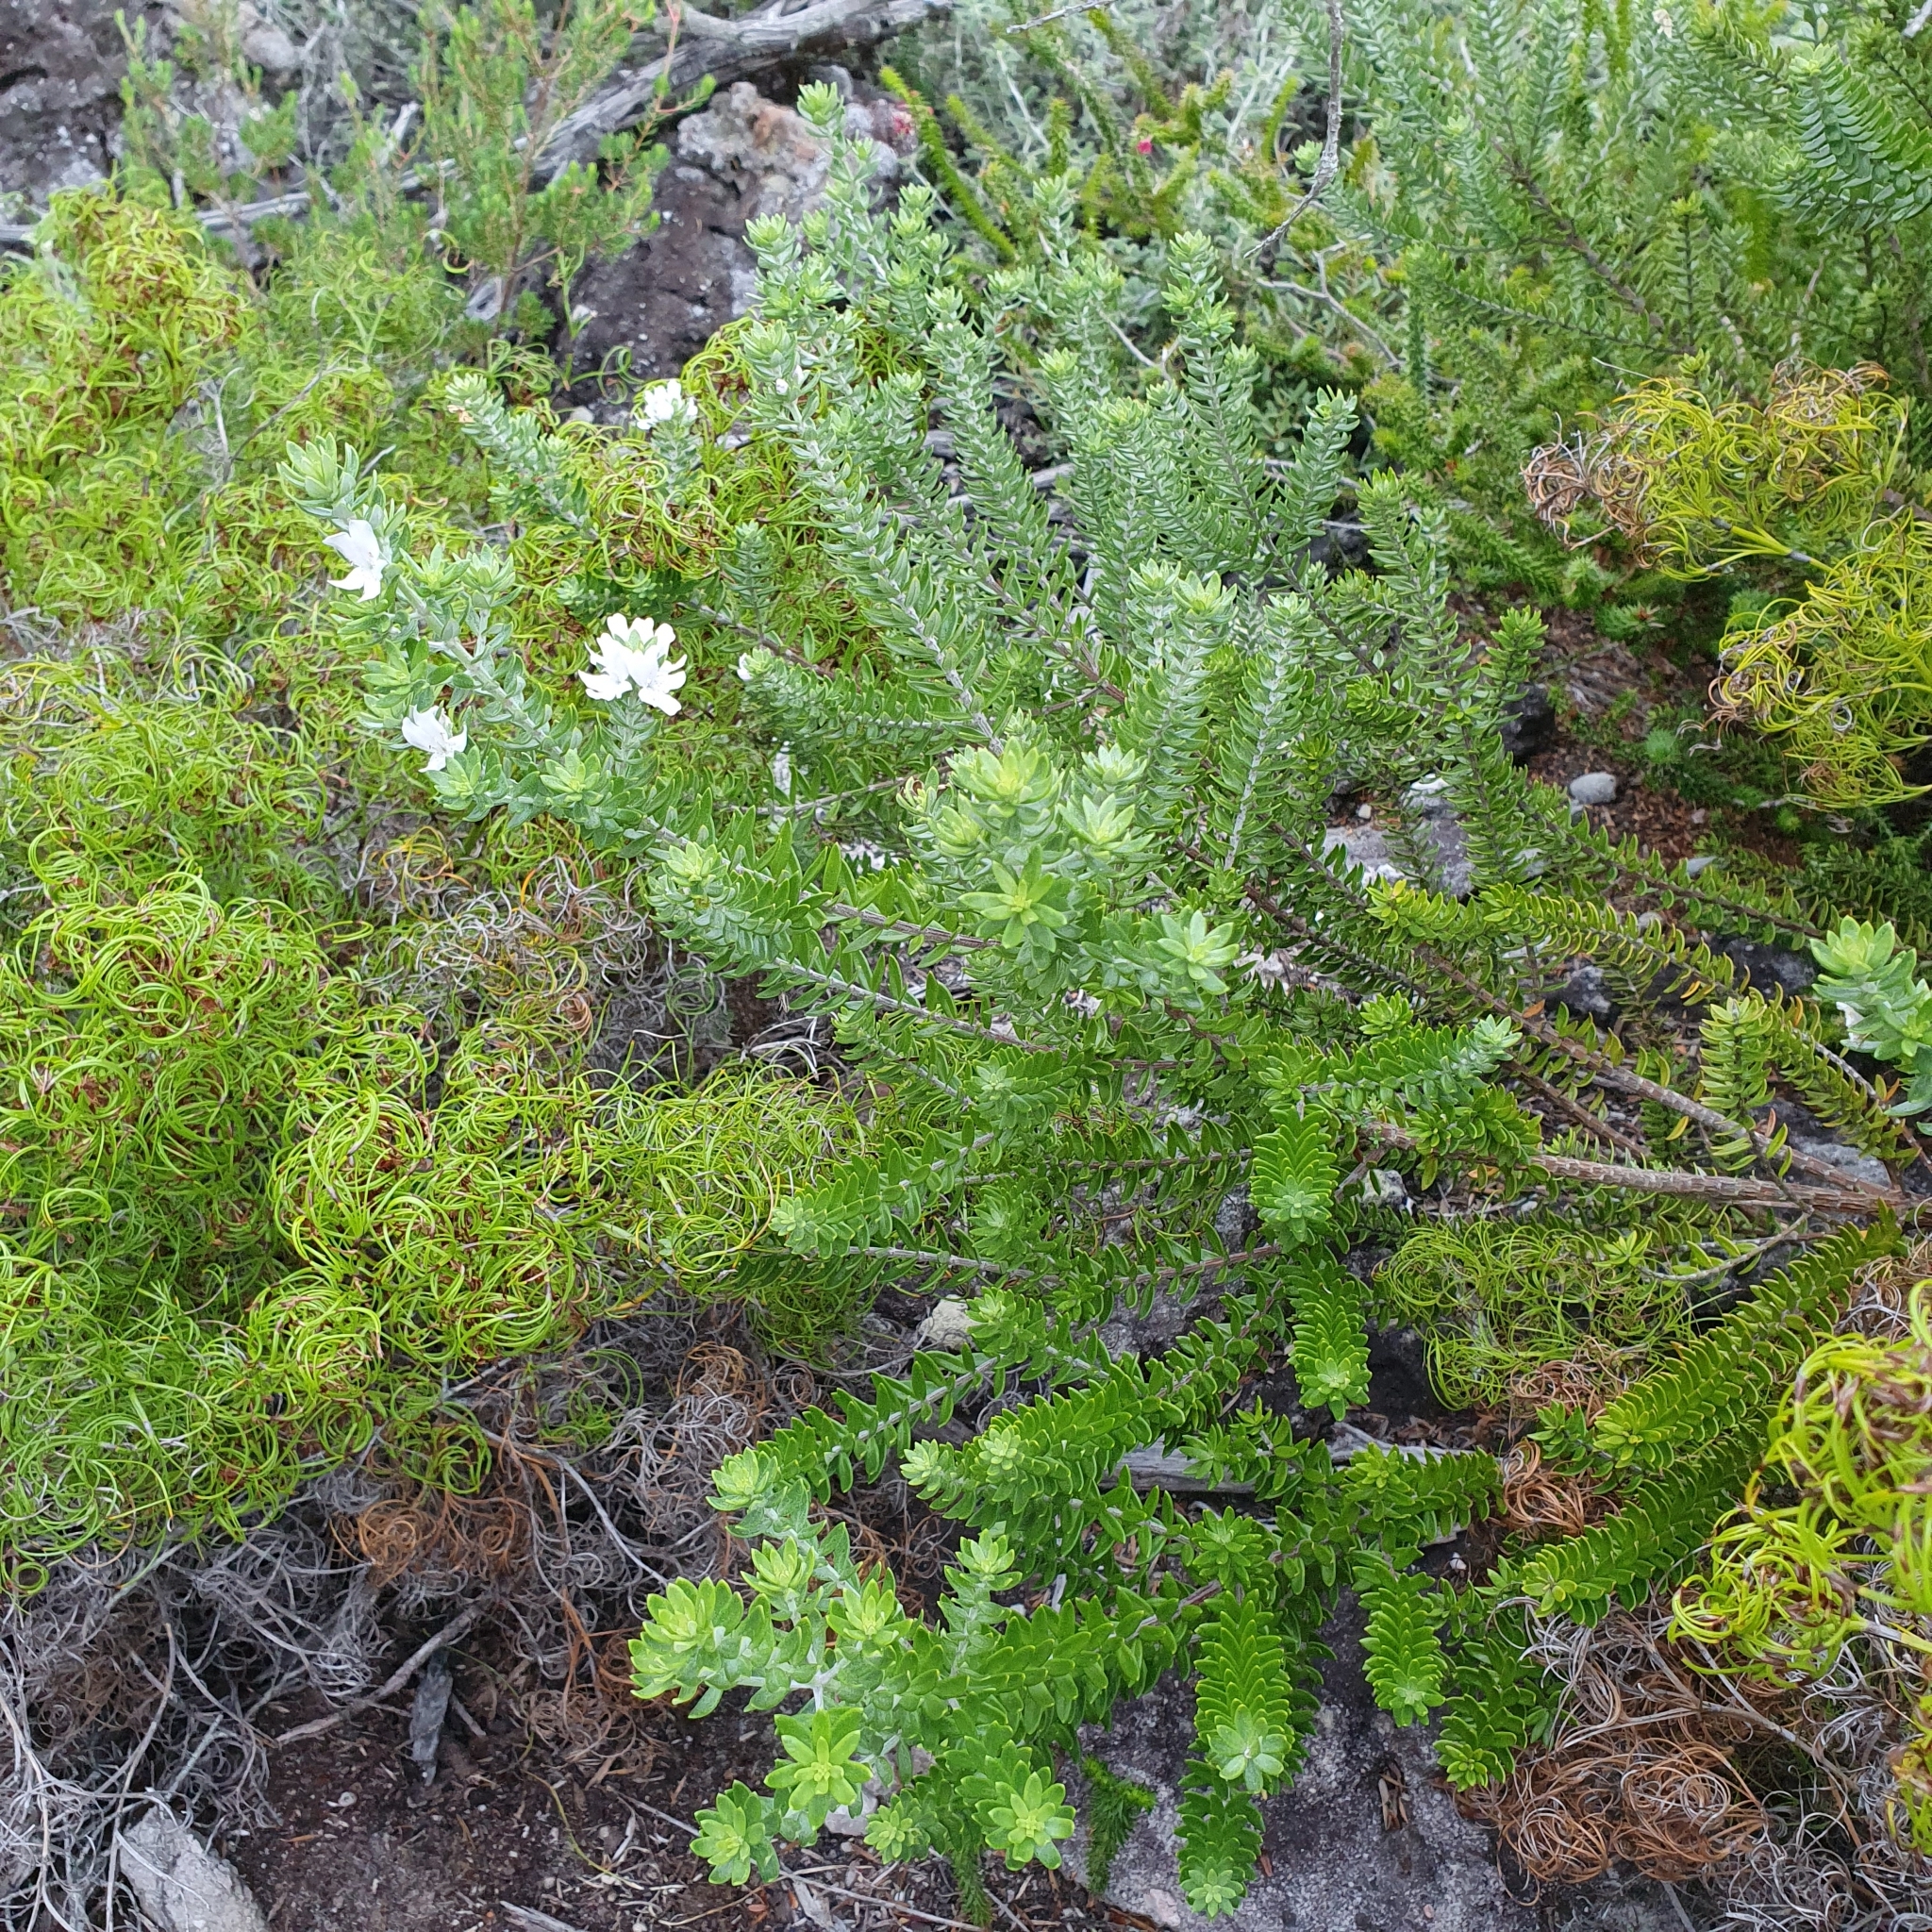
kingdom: Plantae
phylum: Tracheophyta
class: Magnoliopsida
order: Lamiales
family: Lamiaceae
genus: Westringia
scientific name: Westringia fruticosa
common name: Coastal-rosemary
